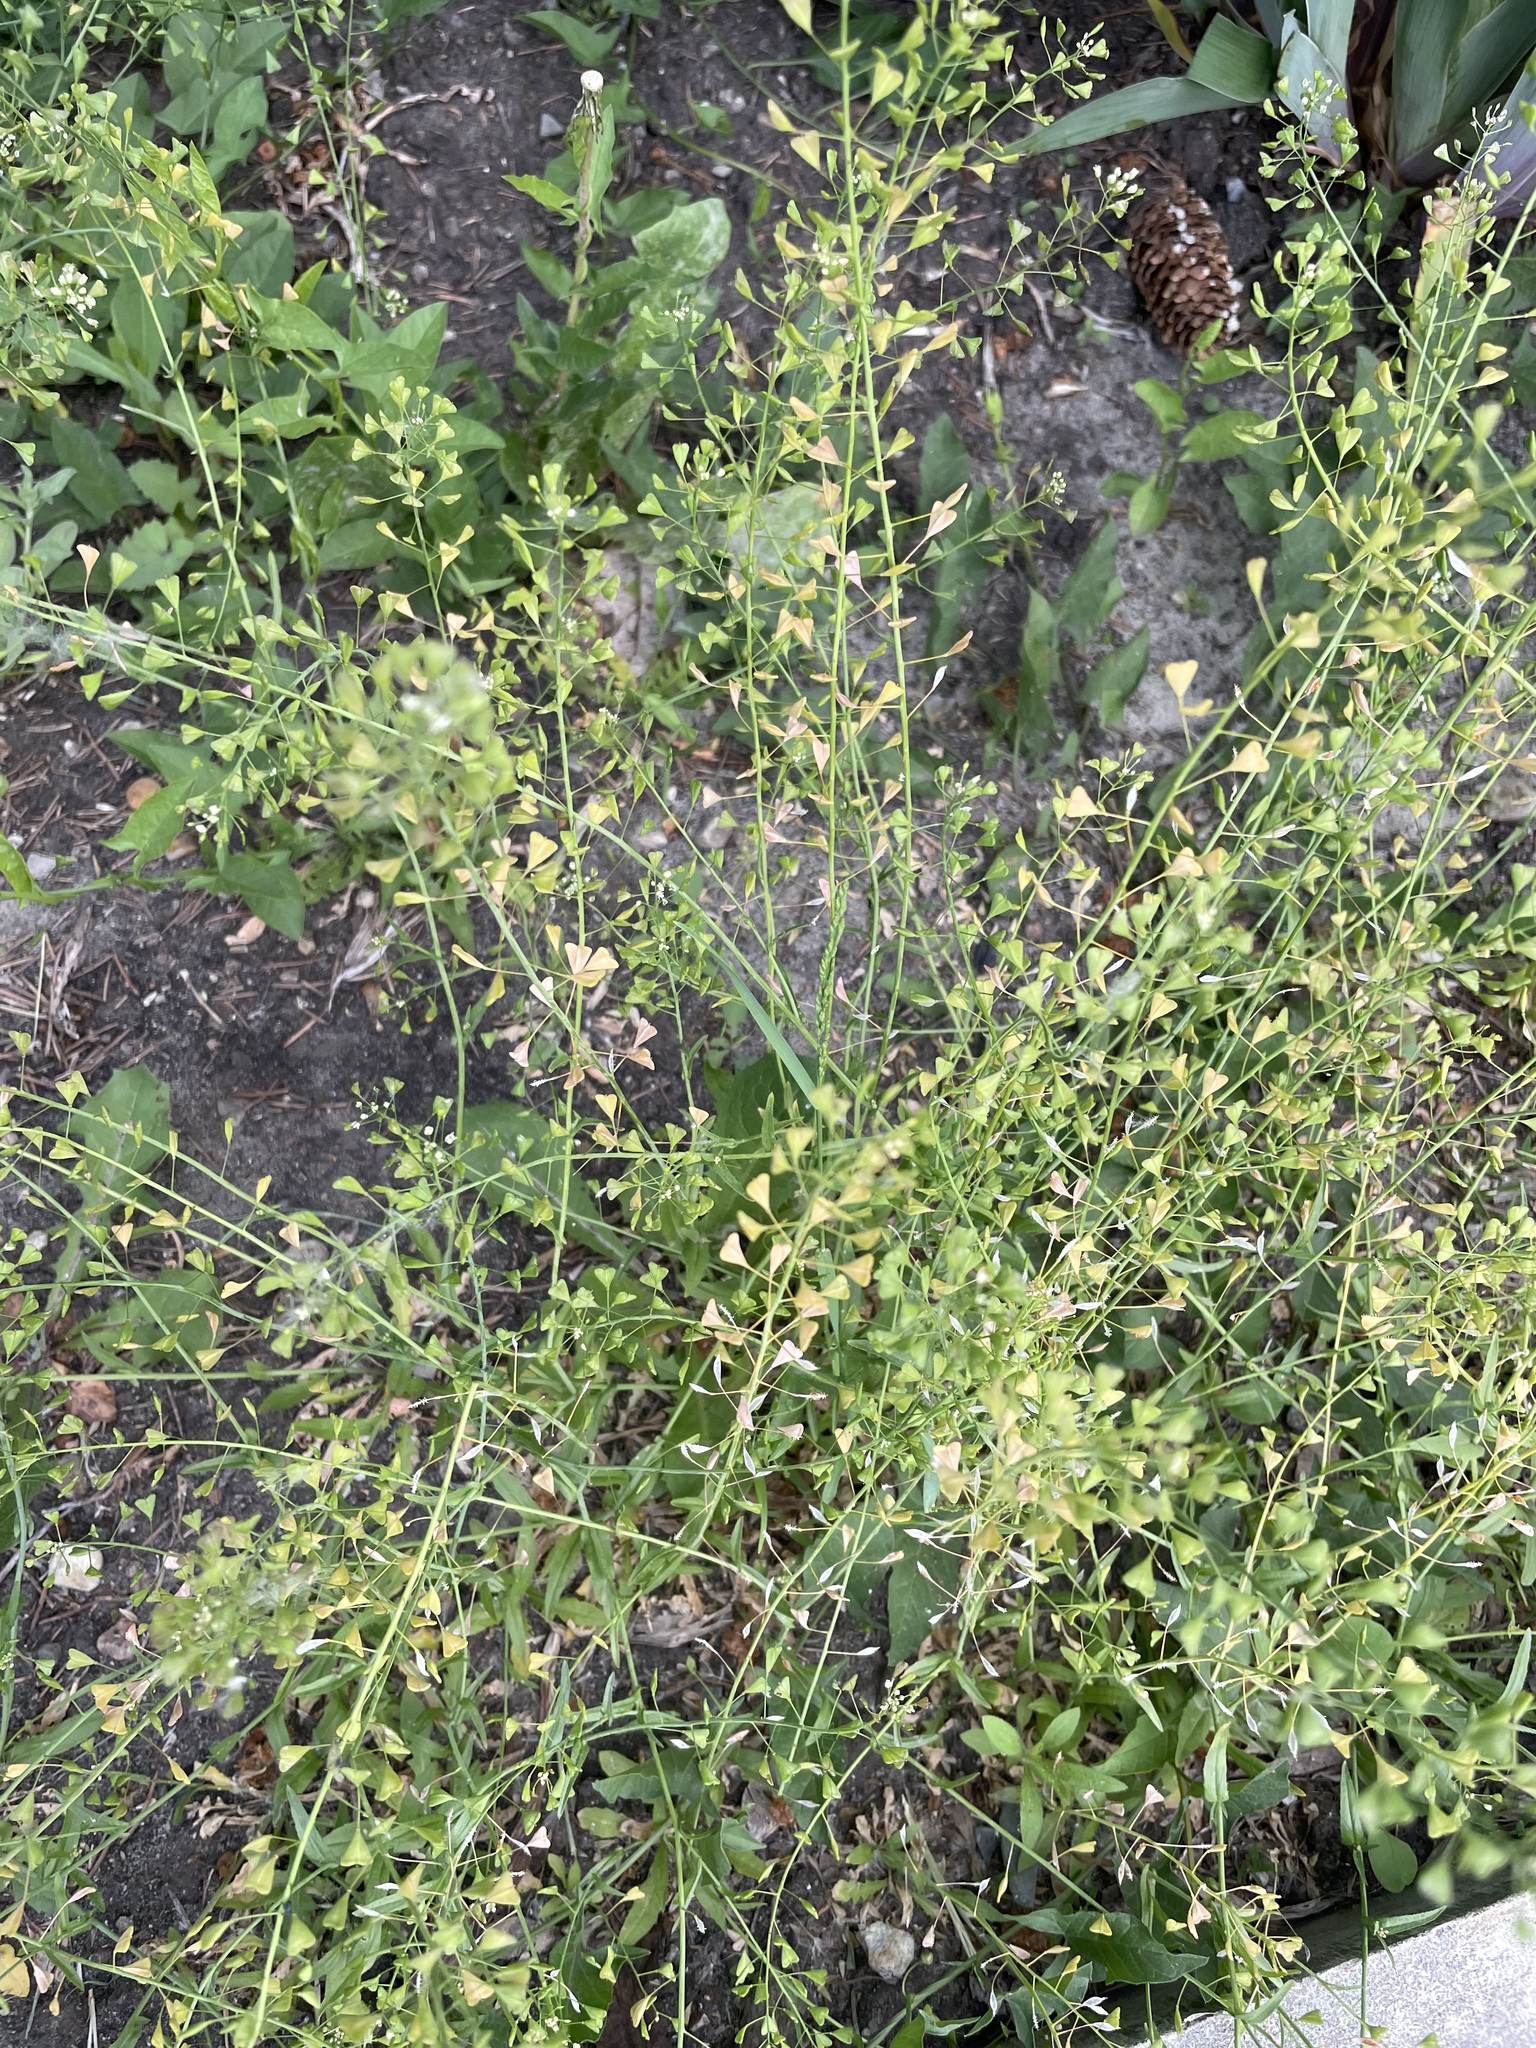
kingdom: Plantae
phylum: Tracheophyta
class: Magnoliopsida
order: Brassicales
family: Brassicaceae
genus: Capsella
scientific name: Capsella bursa-pastoris
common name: Shepherd's purse
